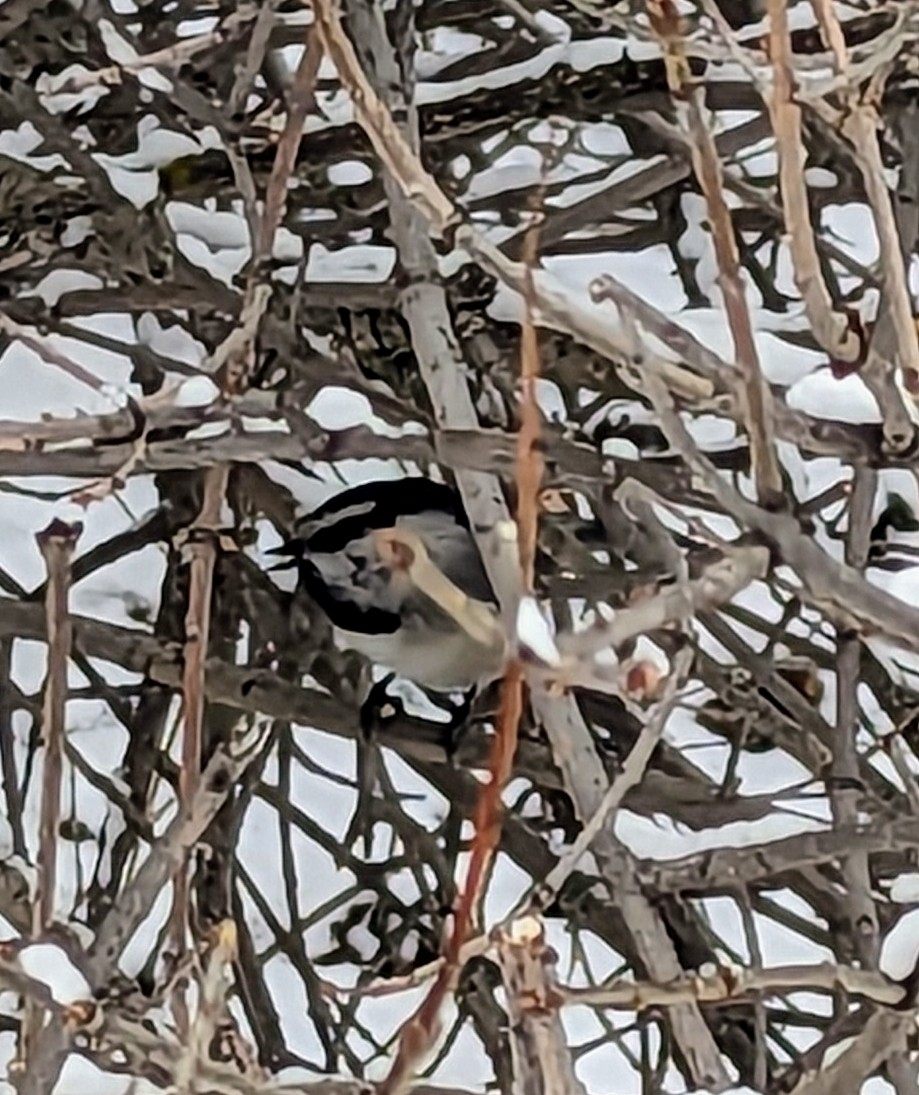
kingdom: Animalia
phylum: Chordata
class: Aves
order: Passeriformes
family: Paridae
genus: Poecile
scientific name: Poecile gambeli
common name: Mountain chickadee
